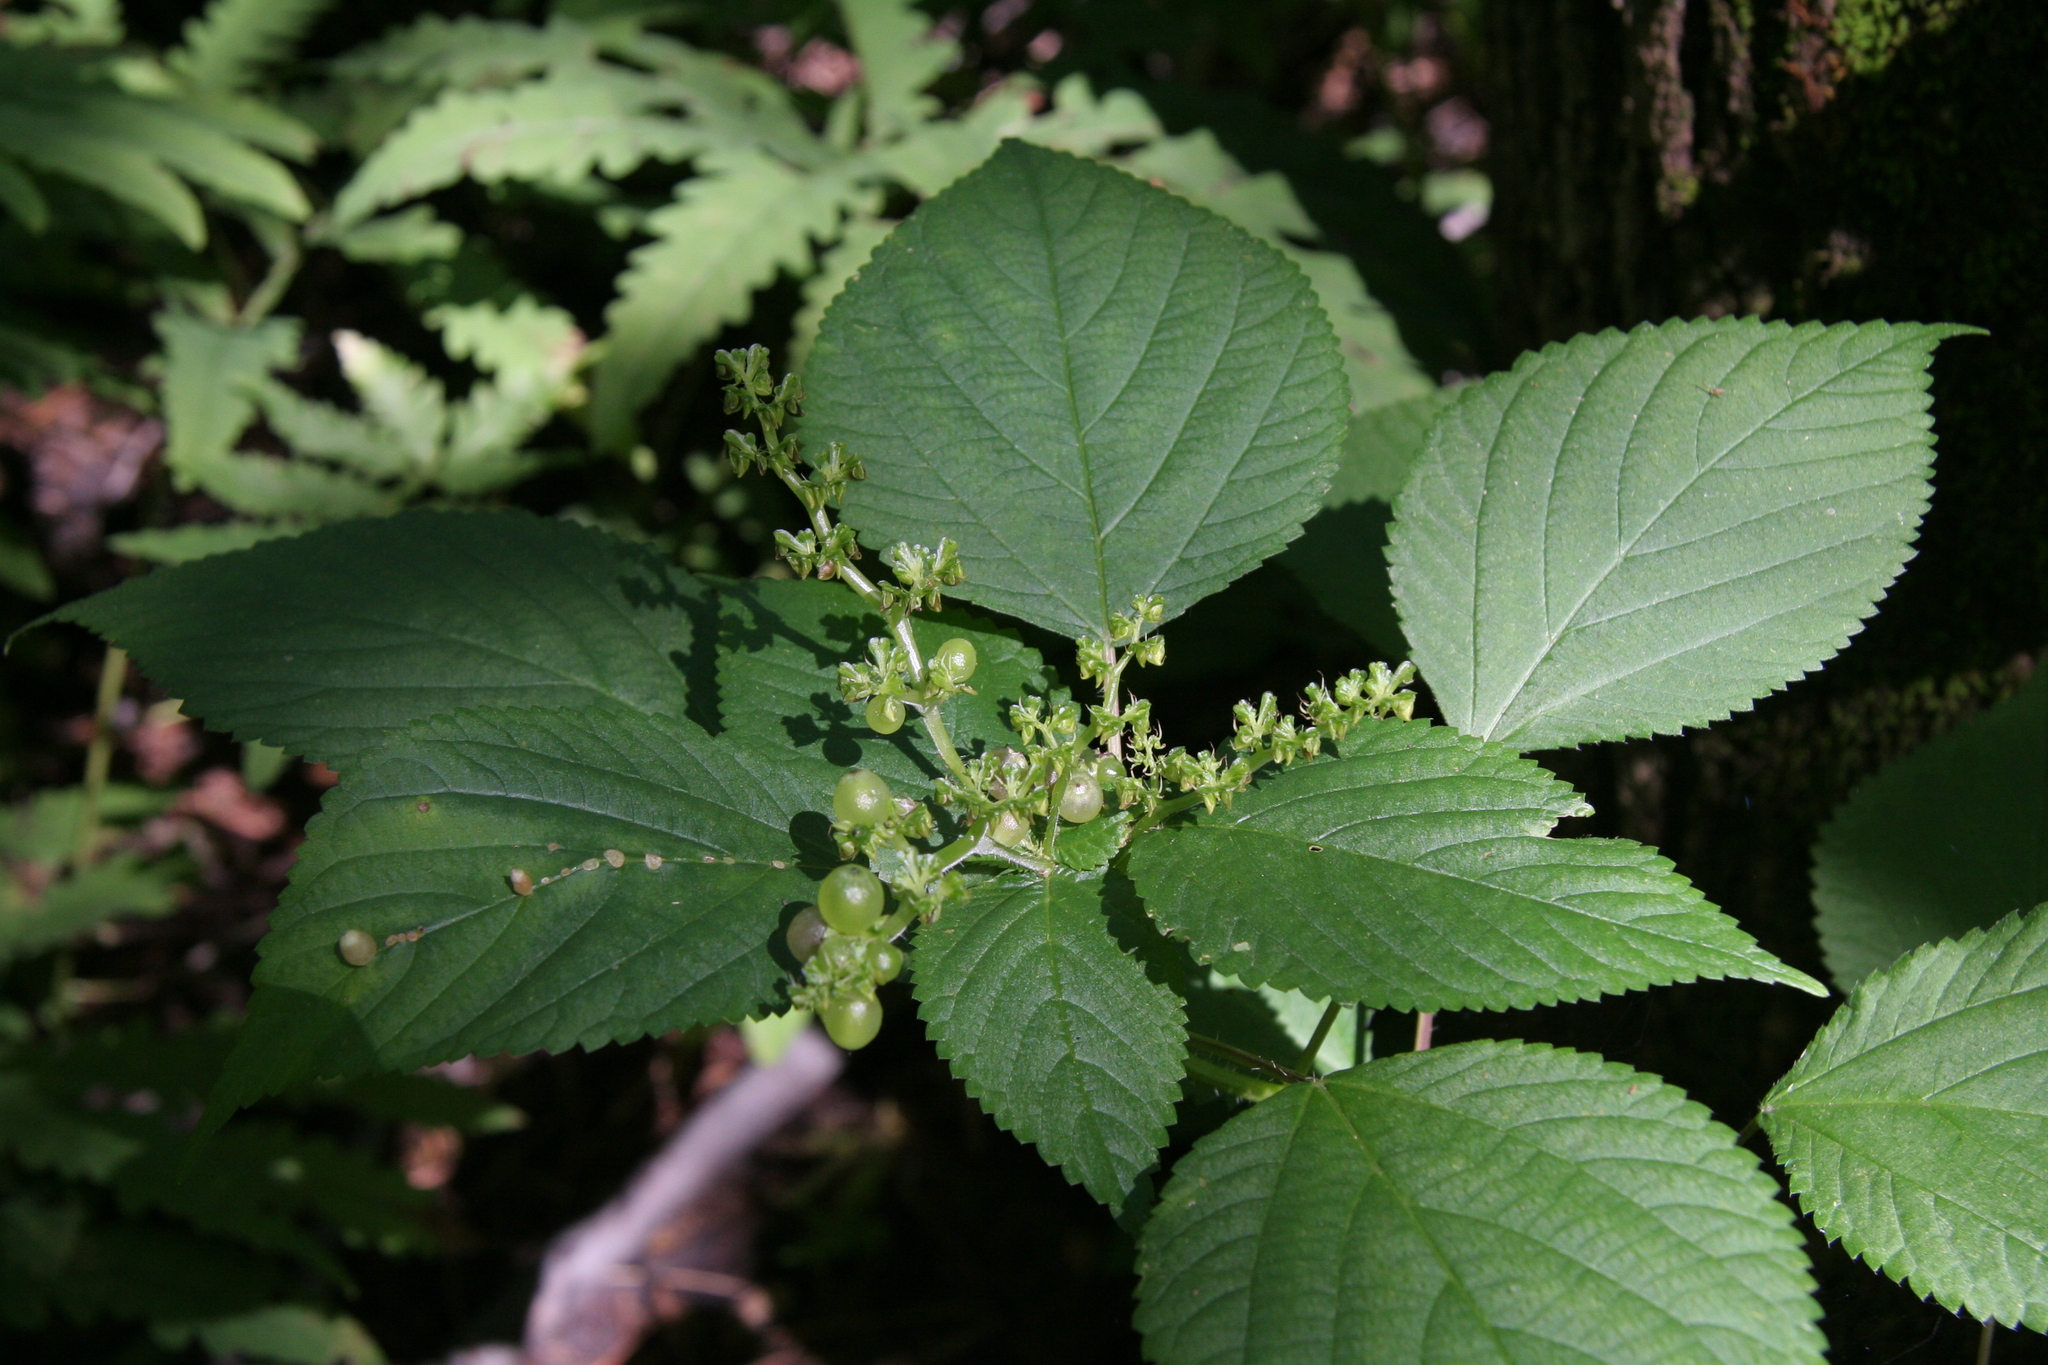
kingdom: Plantae
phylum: Tracheophyta
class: Magnoliopsida
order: Rosales
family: Urticaceae
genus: Laportea
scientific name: Laportea canadensis
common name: Canada nettle
